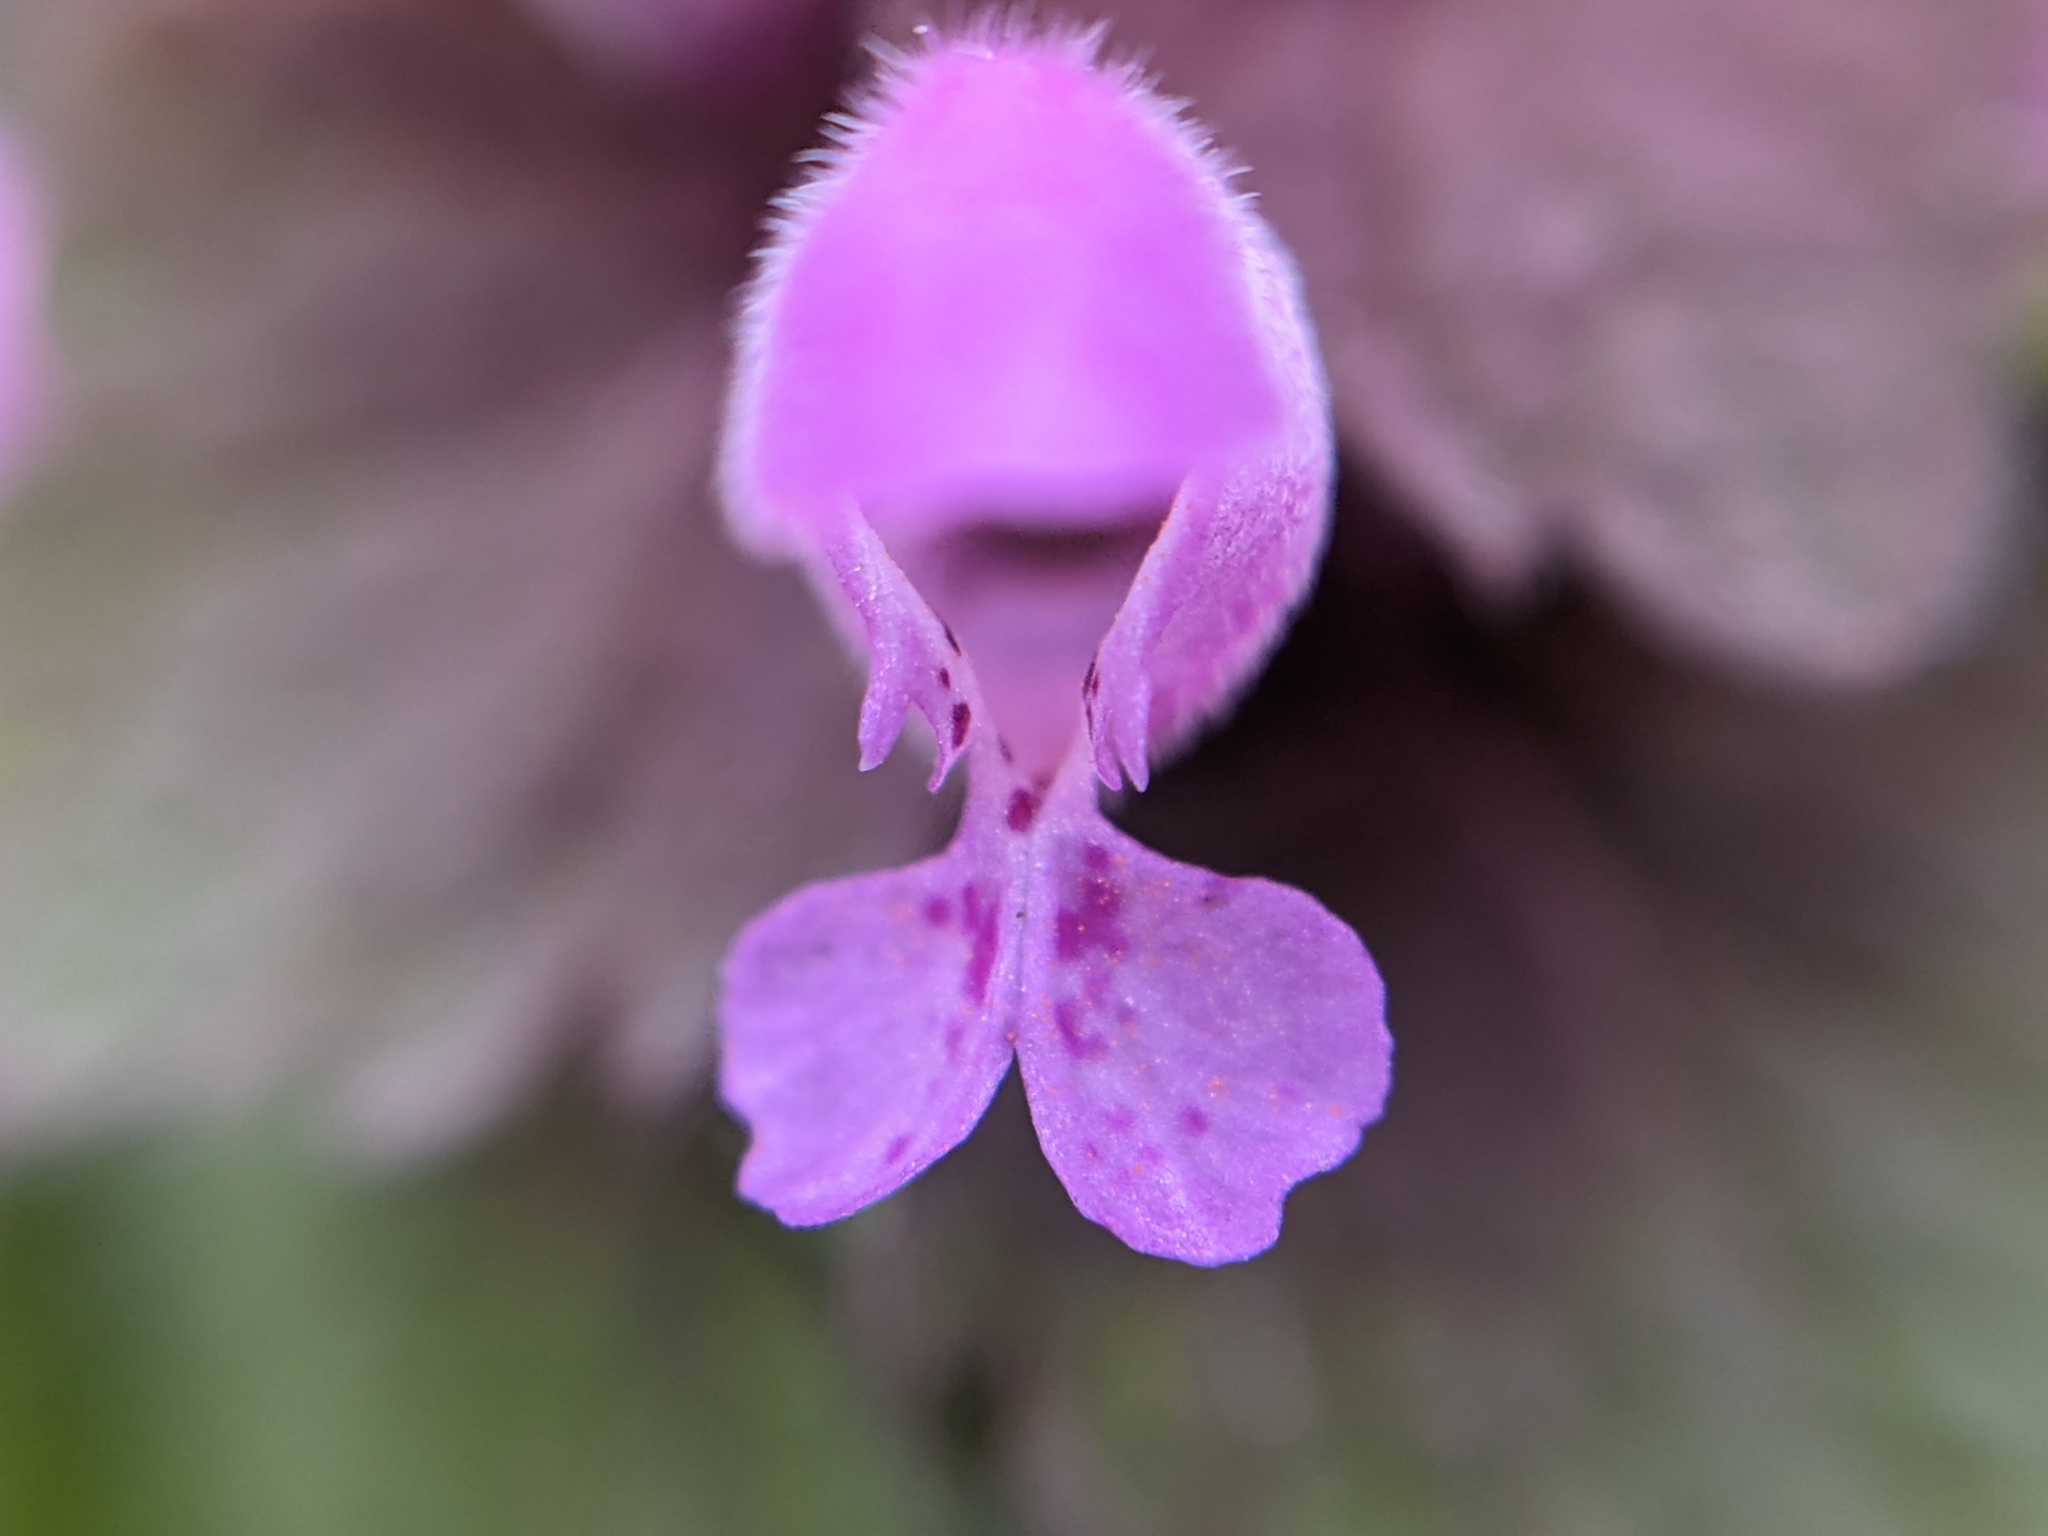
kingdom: Plantae
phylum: Tracheophyta
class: Magnoliopsida
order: Lamiales
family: Lamiaceae
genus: Lamium
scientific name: Lamium purpureum
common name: Red dead-nettle
